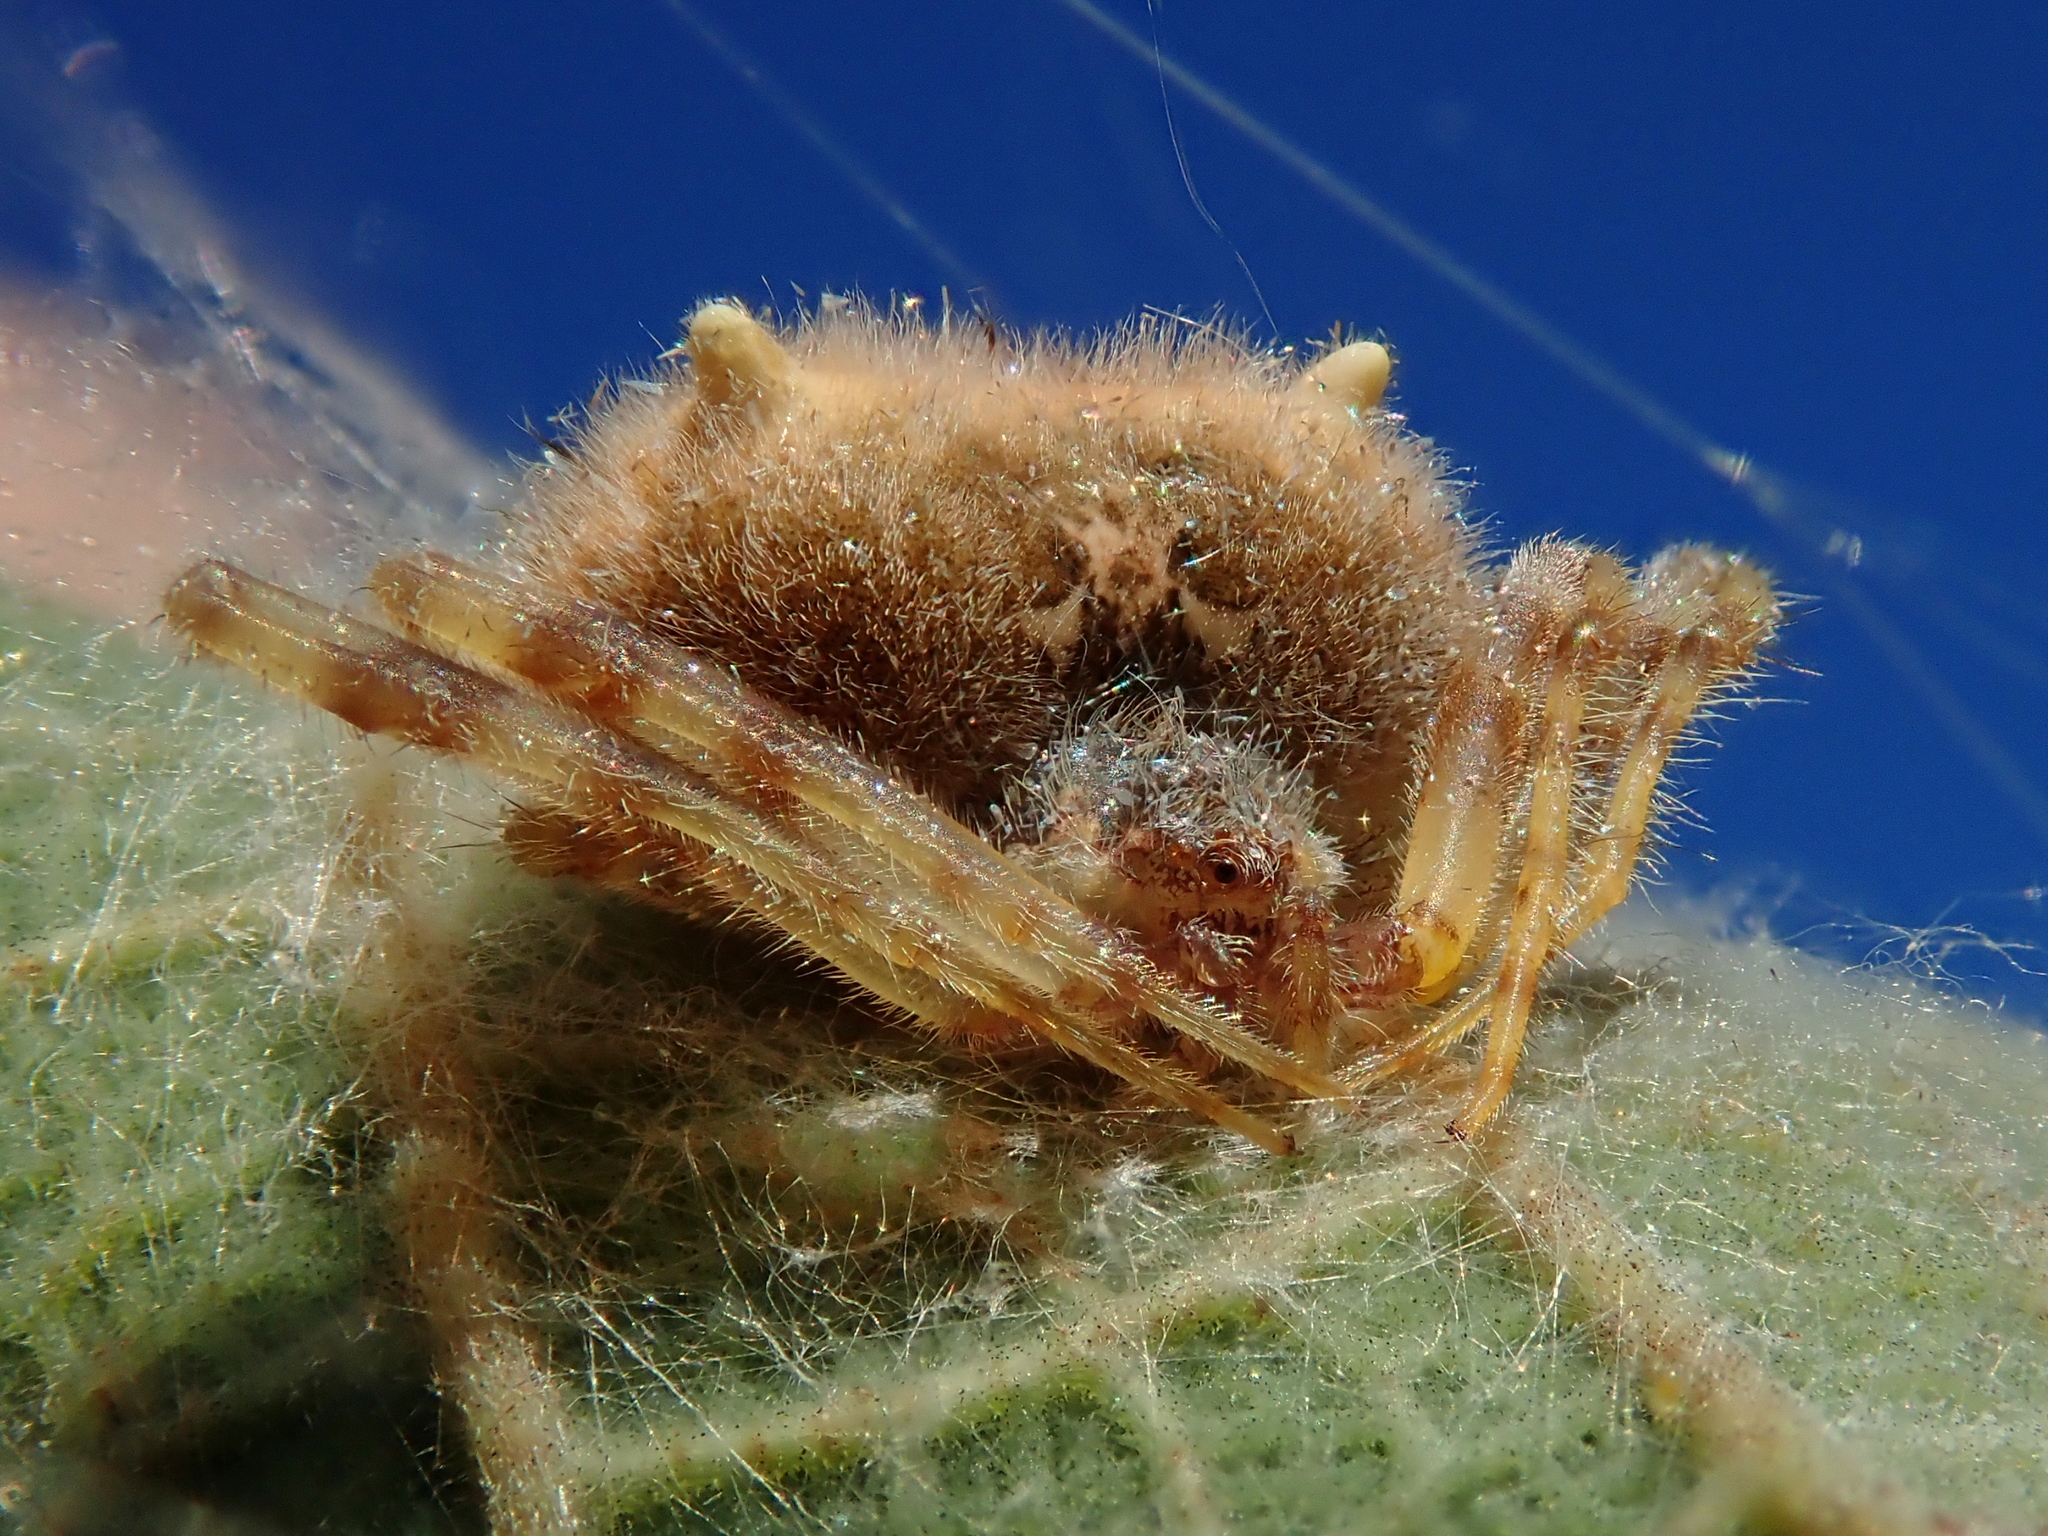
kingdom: Animalia
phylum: Arthropoda
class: Arachnida
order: Araneae
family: Araneidae
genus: Taczanowskia
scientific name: Taczanowskia sextuberculata
